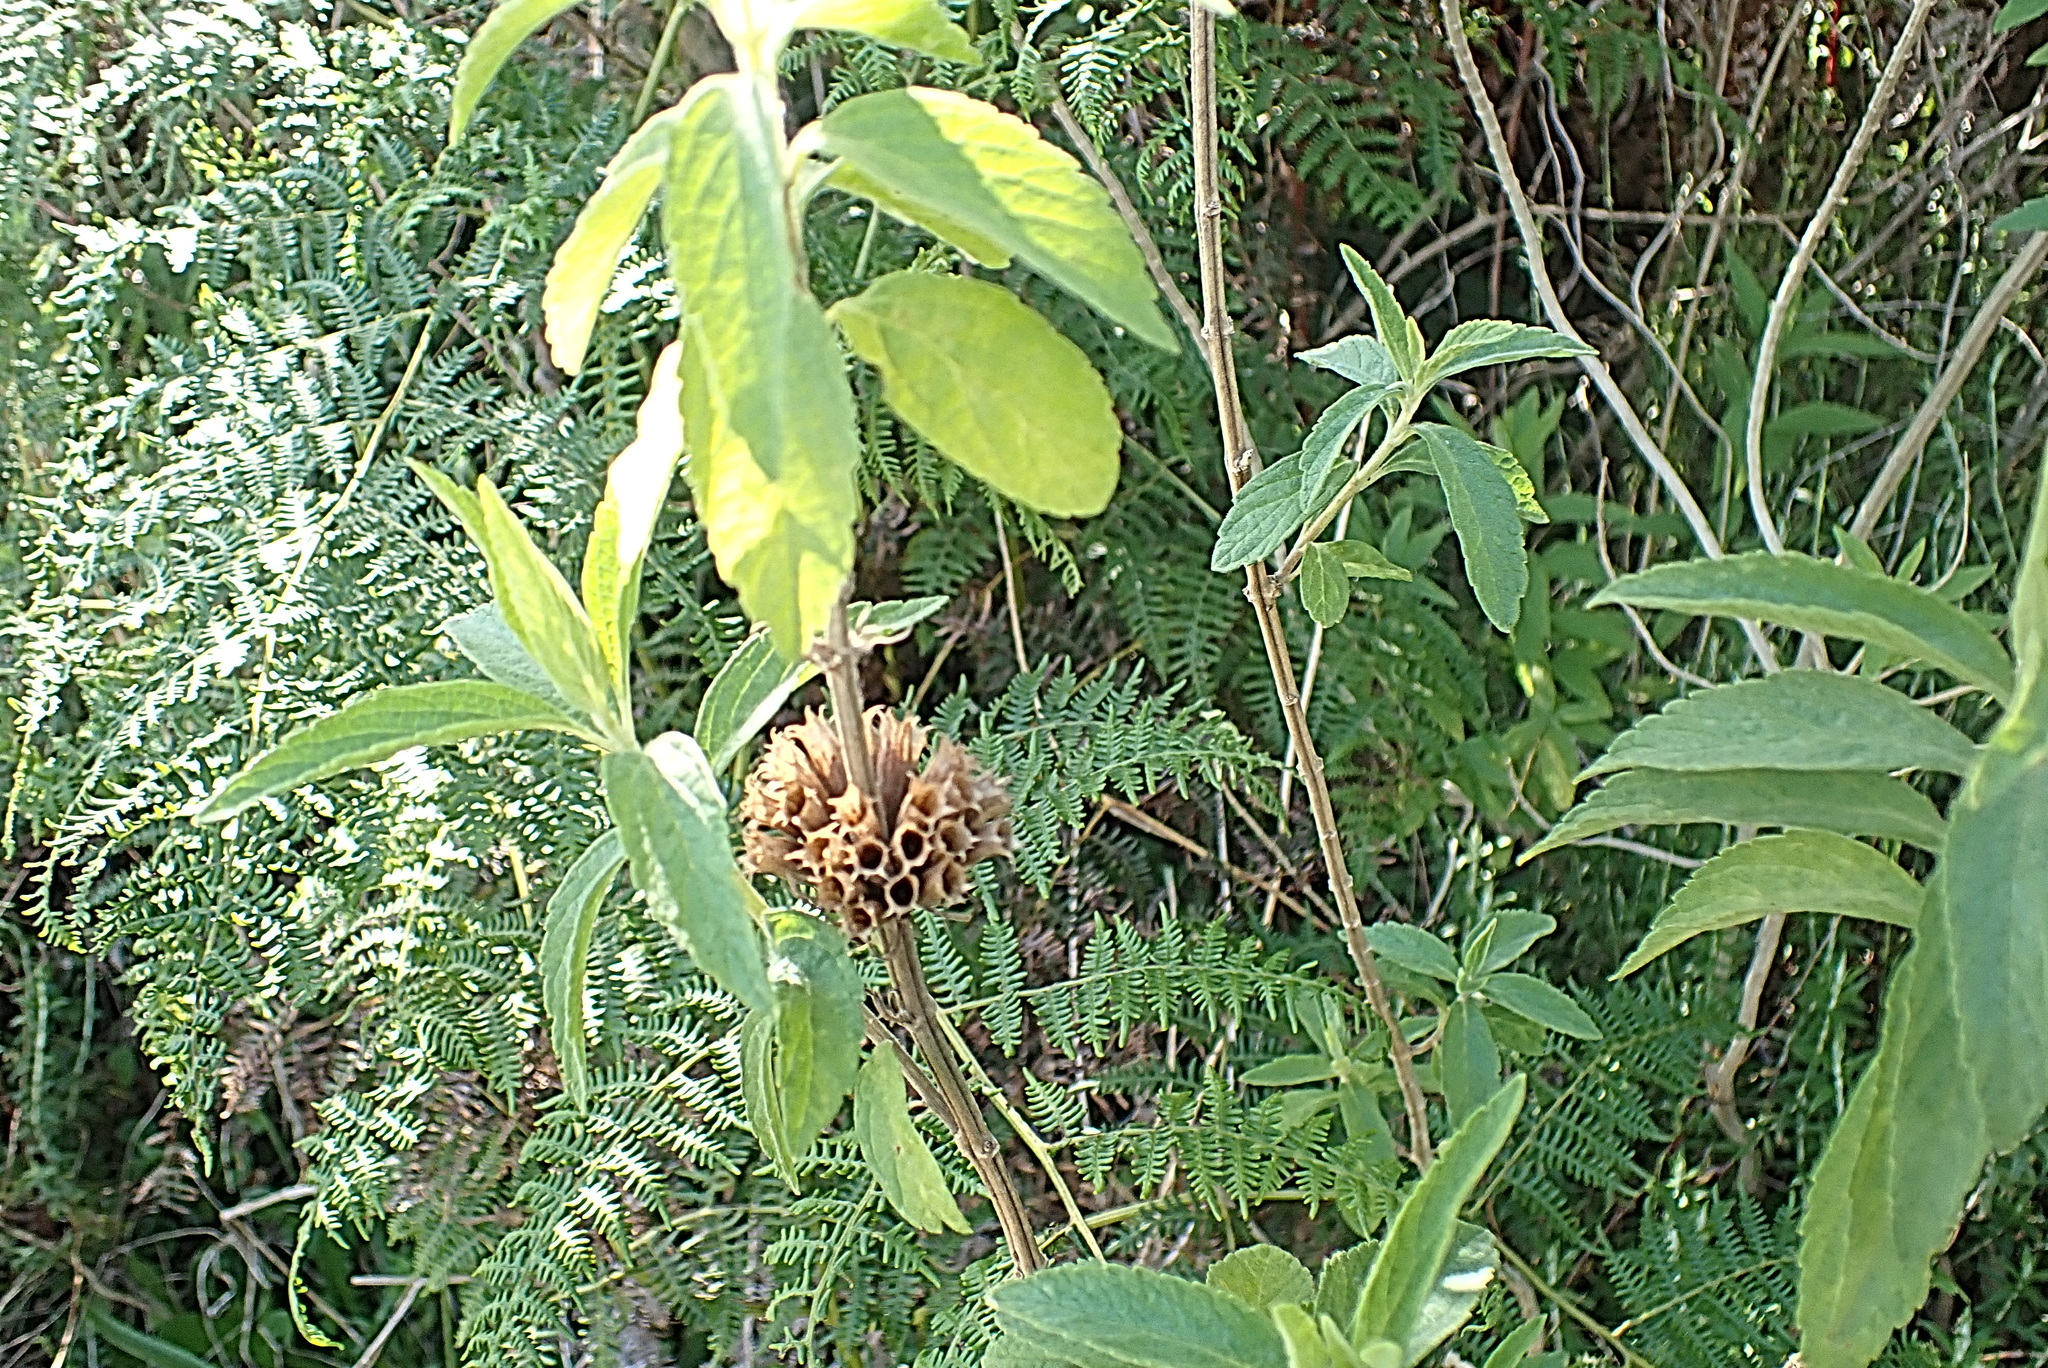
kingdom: Plantae
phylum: Tracheophyta
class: Magnoliopsida
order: Lamiales
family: Lamiaceae
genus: Leonotis
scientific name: Leonotis leonurus
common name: Lion's ear
